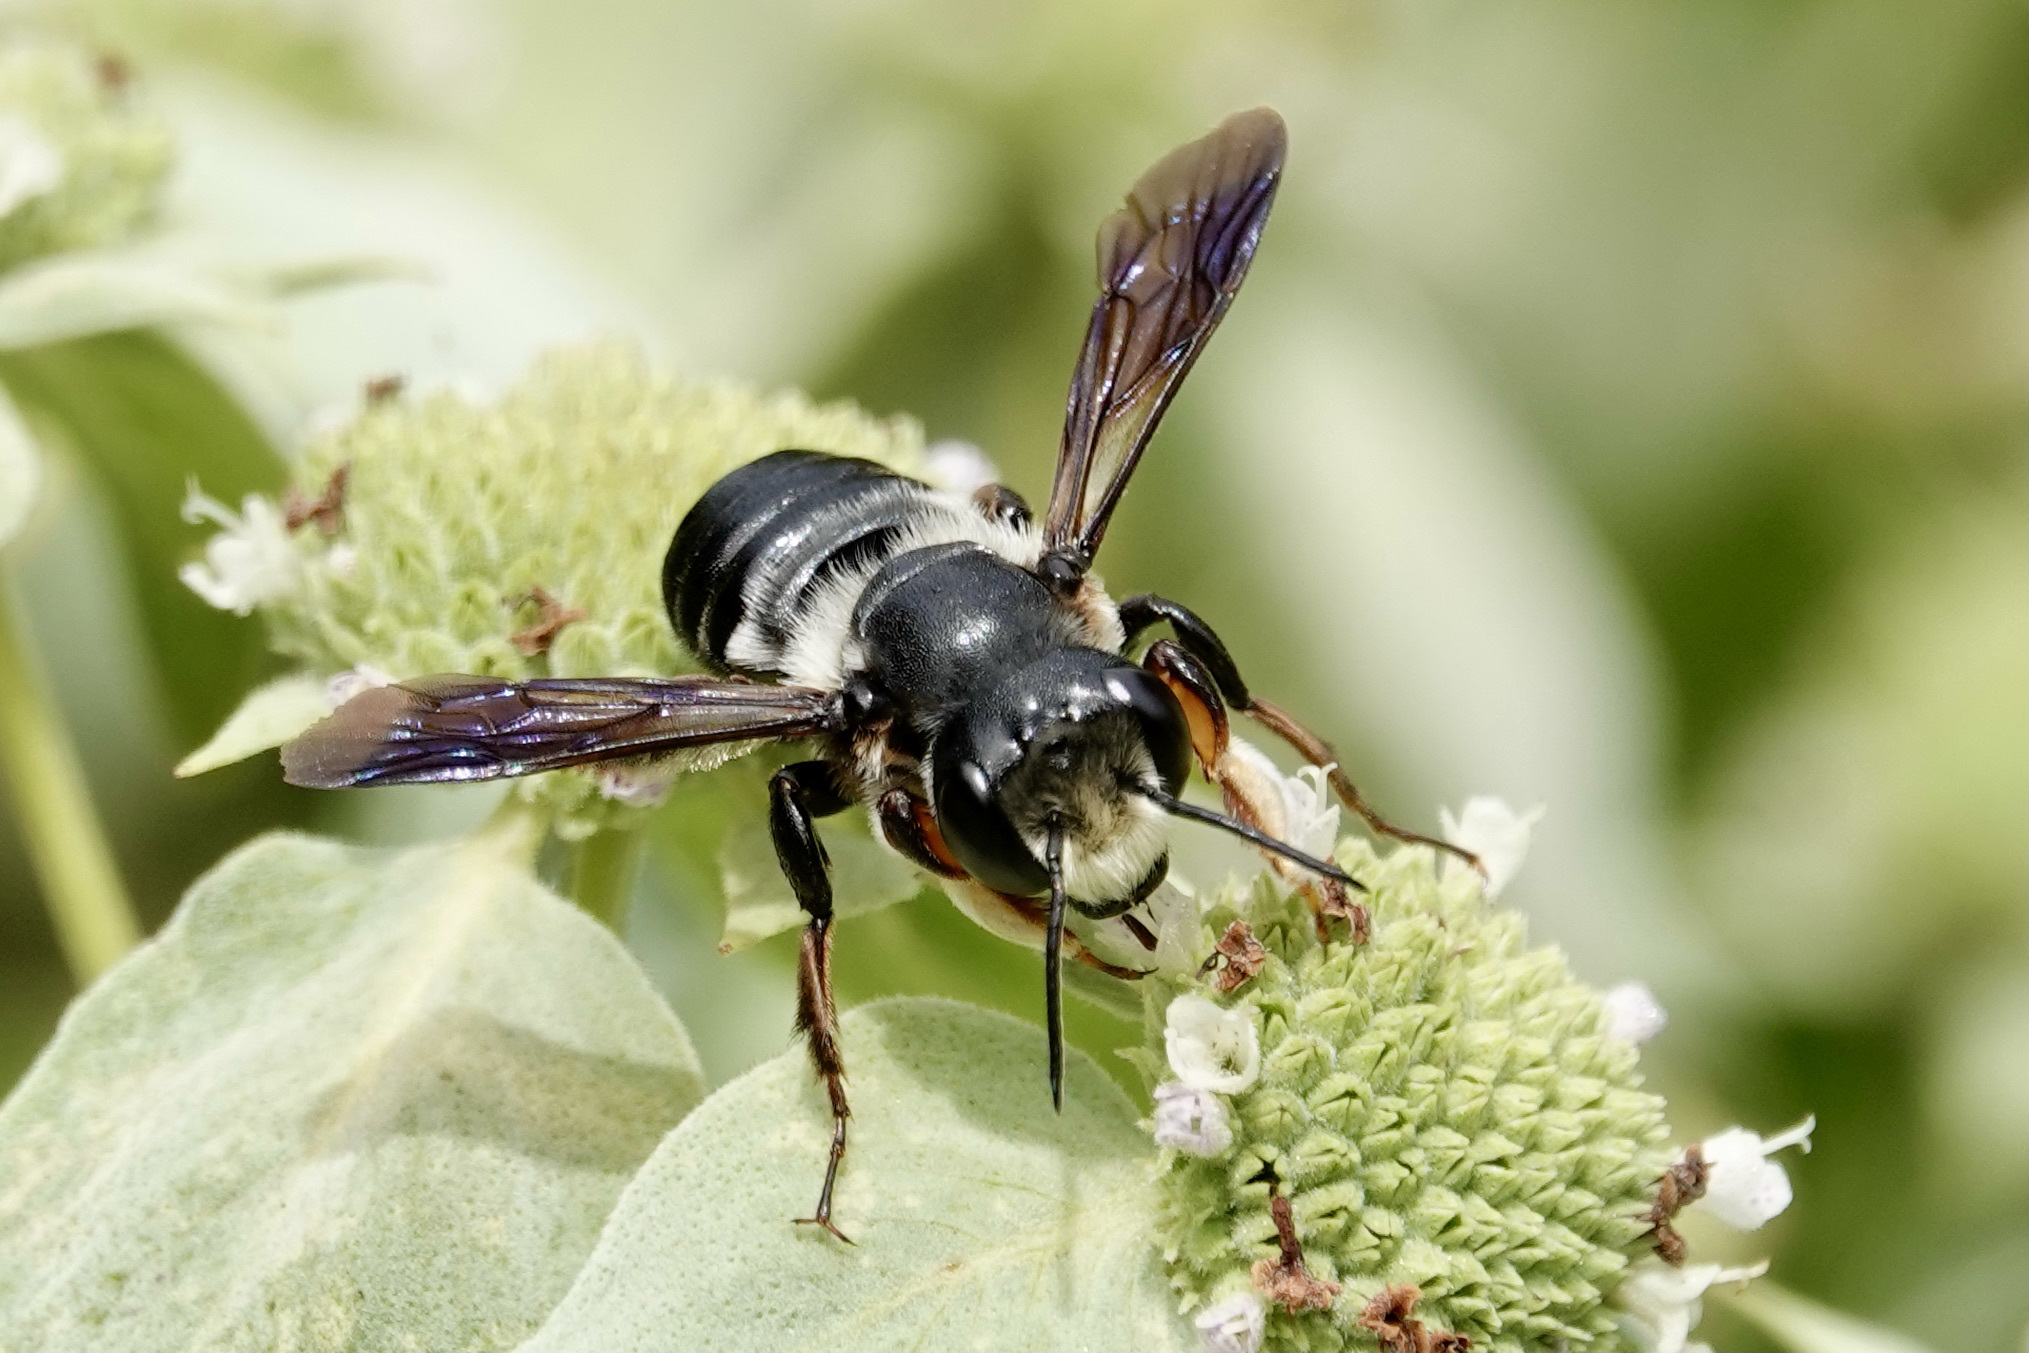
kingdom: Animalia
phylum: Arthropoda
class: Insecta
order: Hymenoptera
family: Megachilidae
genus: Megachile
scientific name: Megachile xylocopoides
